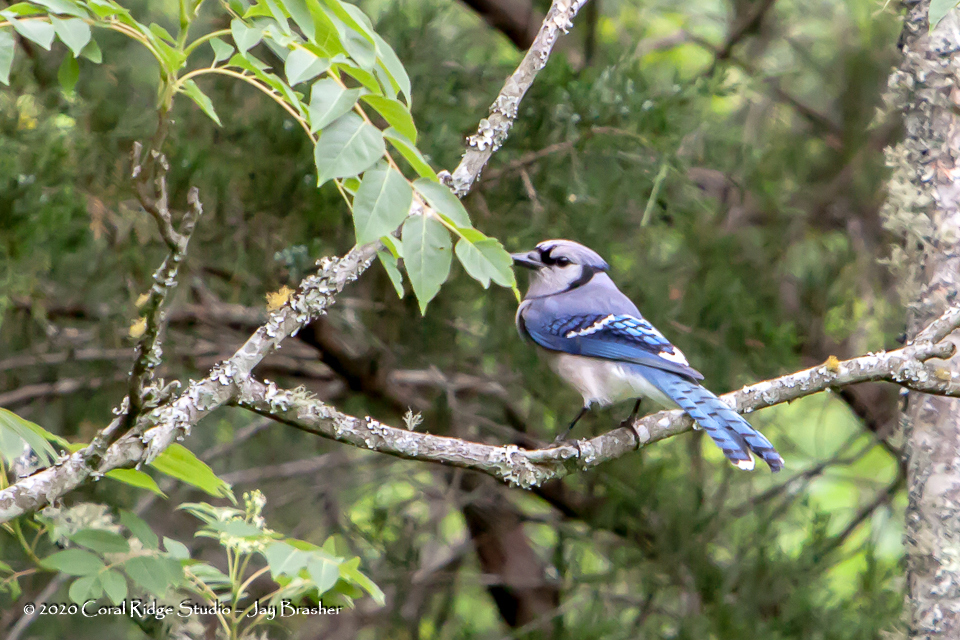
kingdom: Animalia
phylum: Chordata
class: Aves
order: Passeriformes
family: Corvidae
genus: Cyanocitta
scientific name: Cyanocitta cristata
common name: Blue jay
